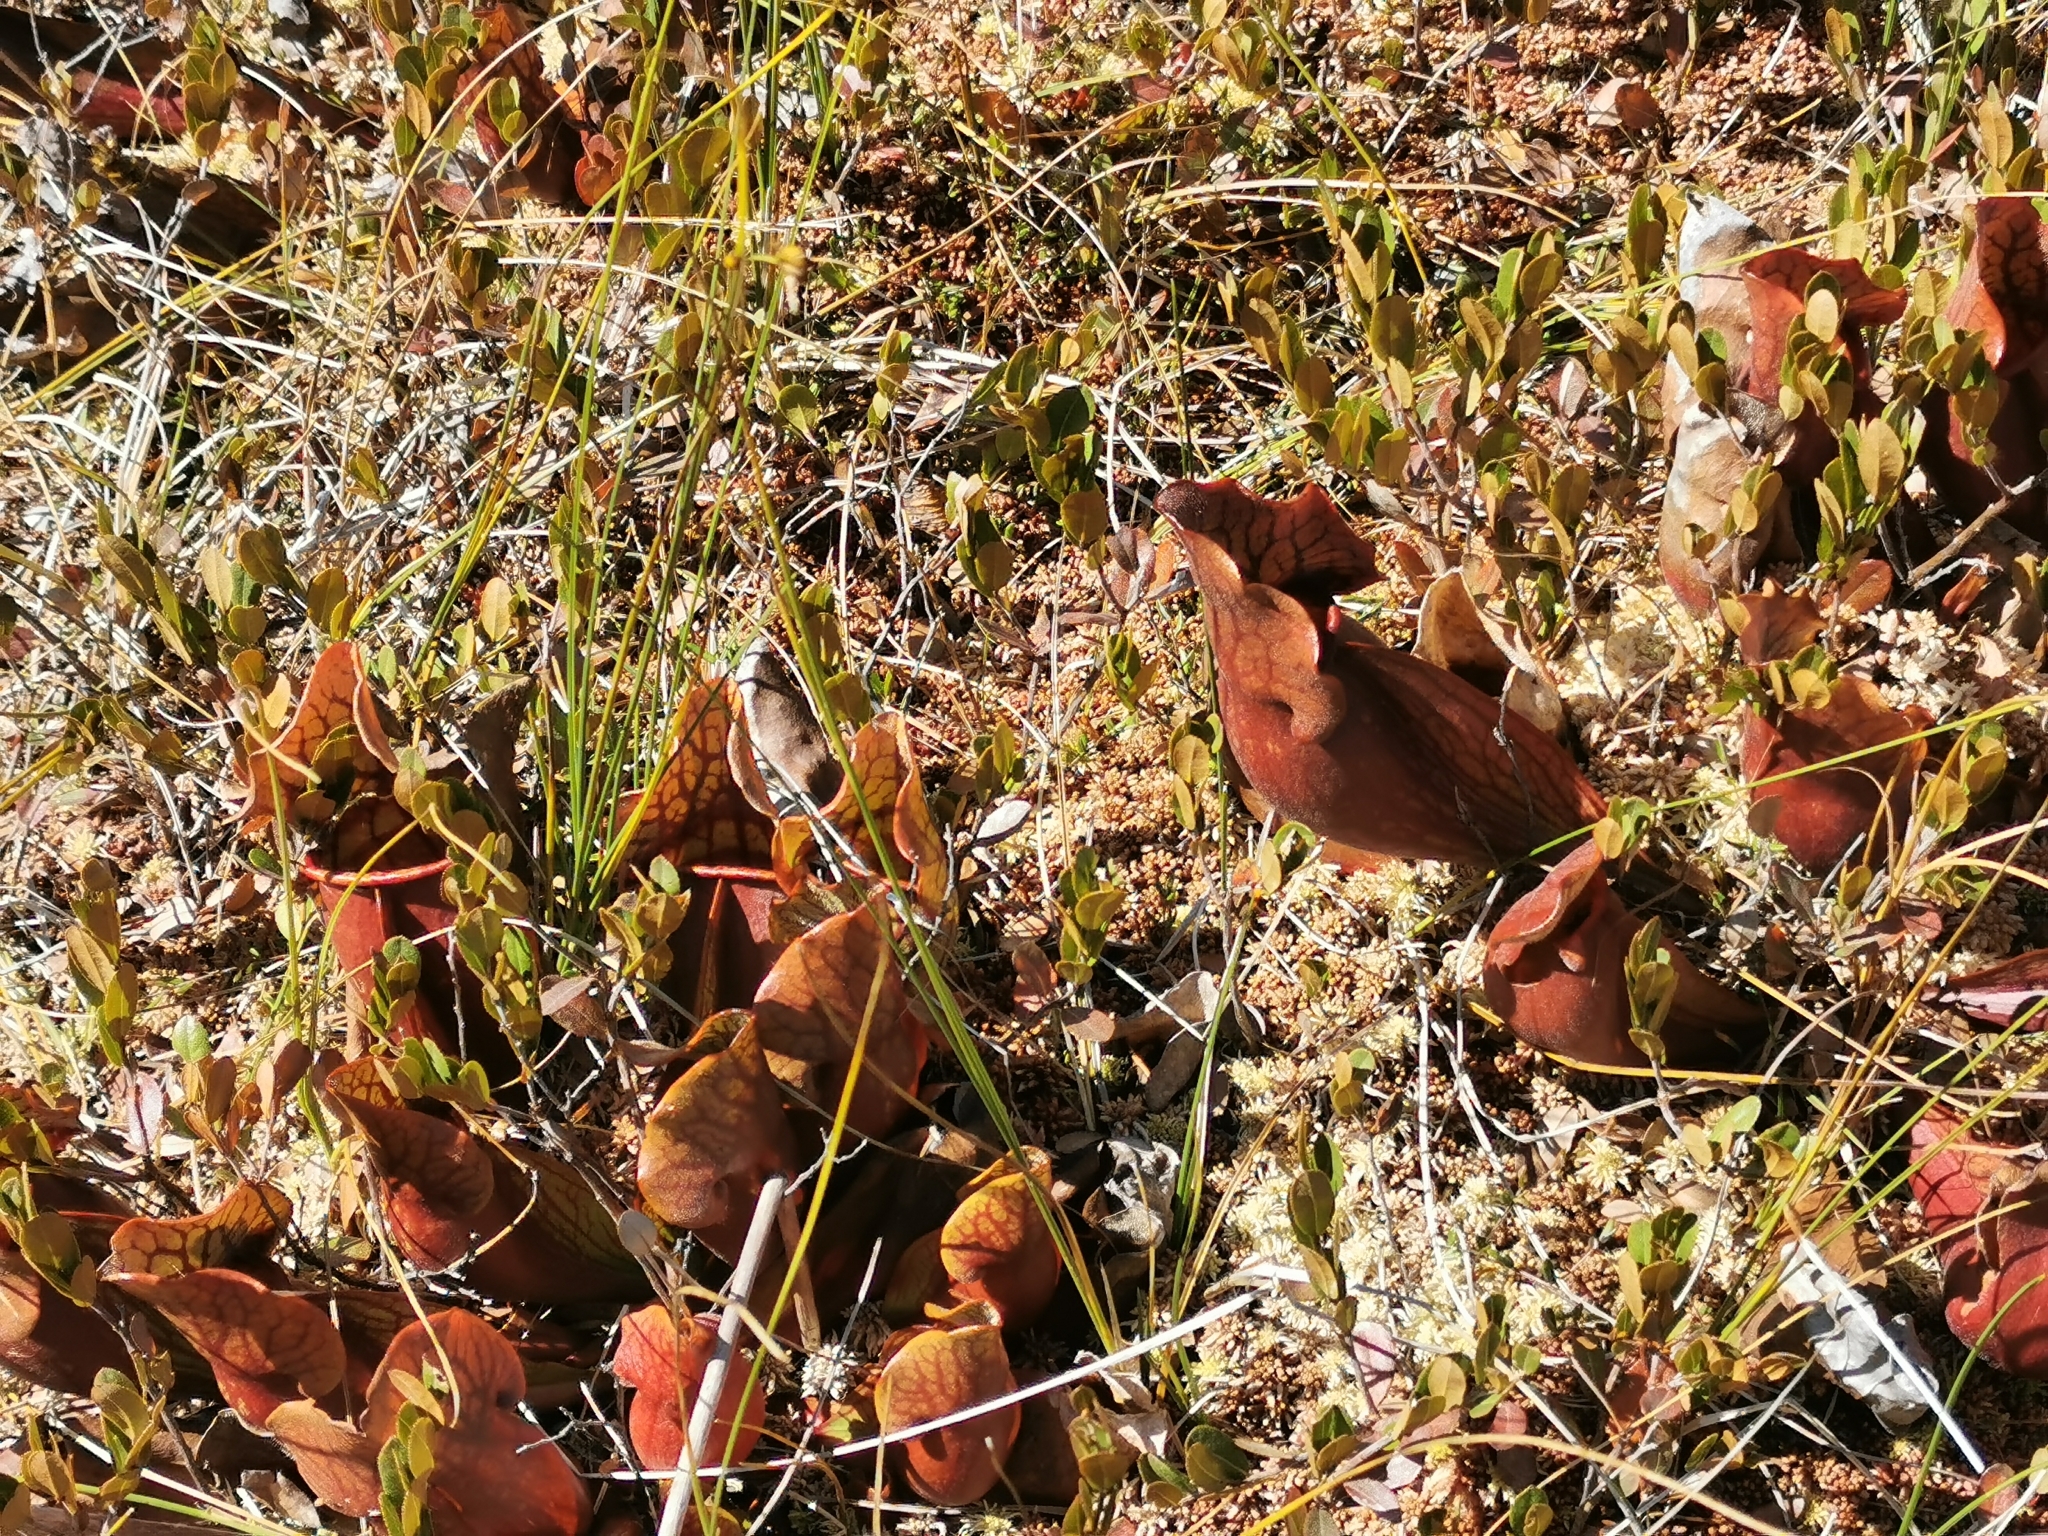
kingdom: Plantae
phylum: Tracheophyta
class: Magnoliopsida
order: Ericales
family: Sarraceniaceae
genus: Sarracenia
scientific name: Sarracenia purpurea
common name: Pitcherplant
